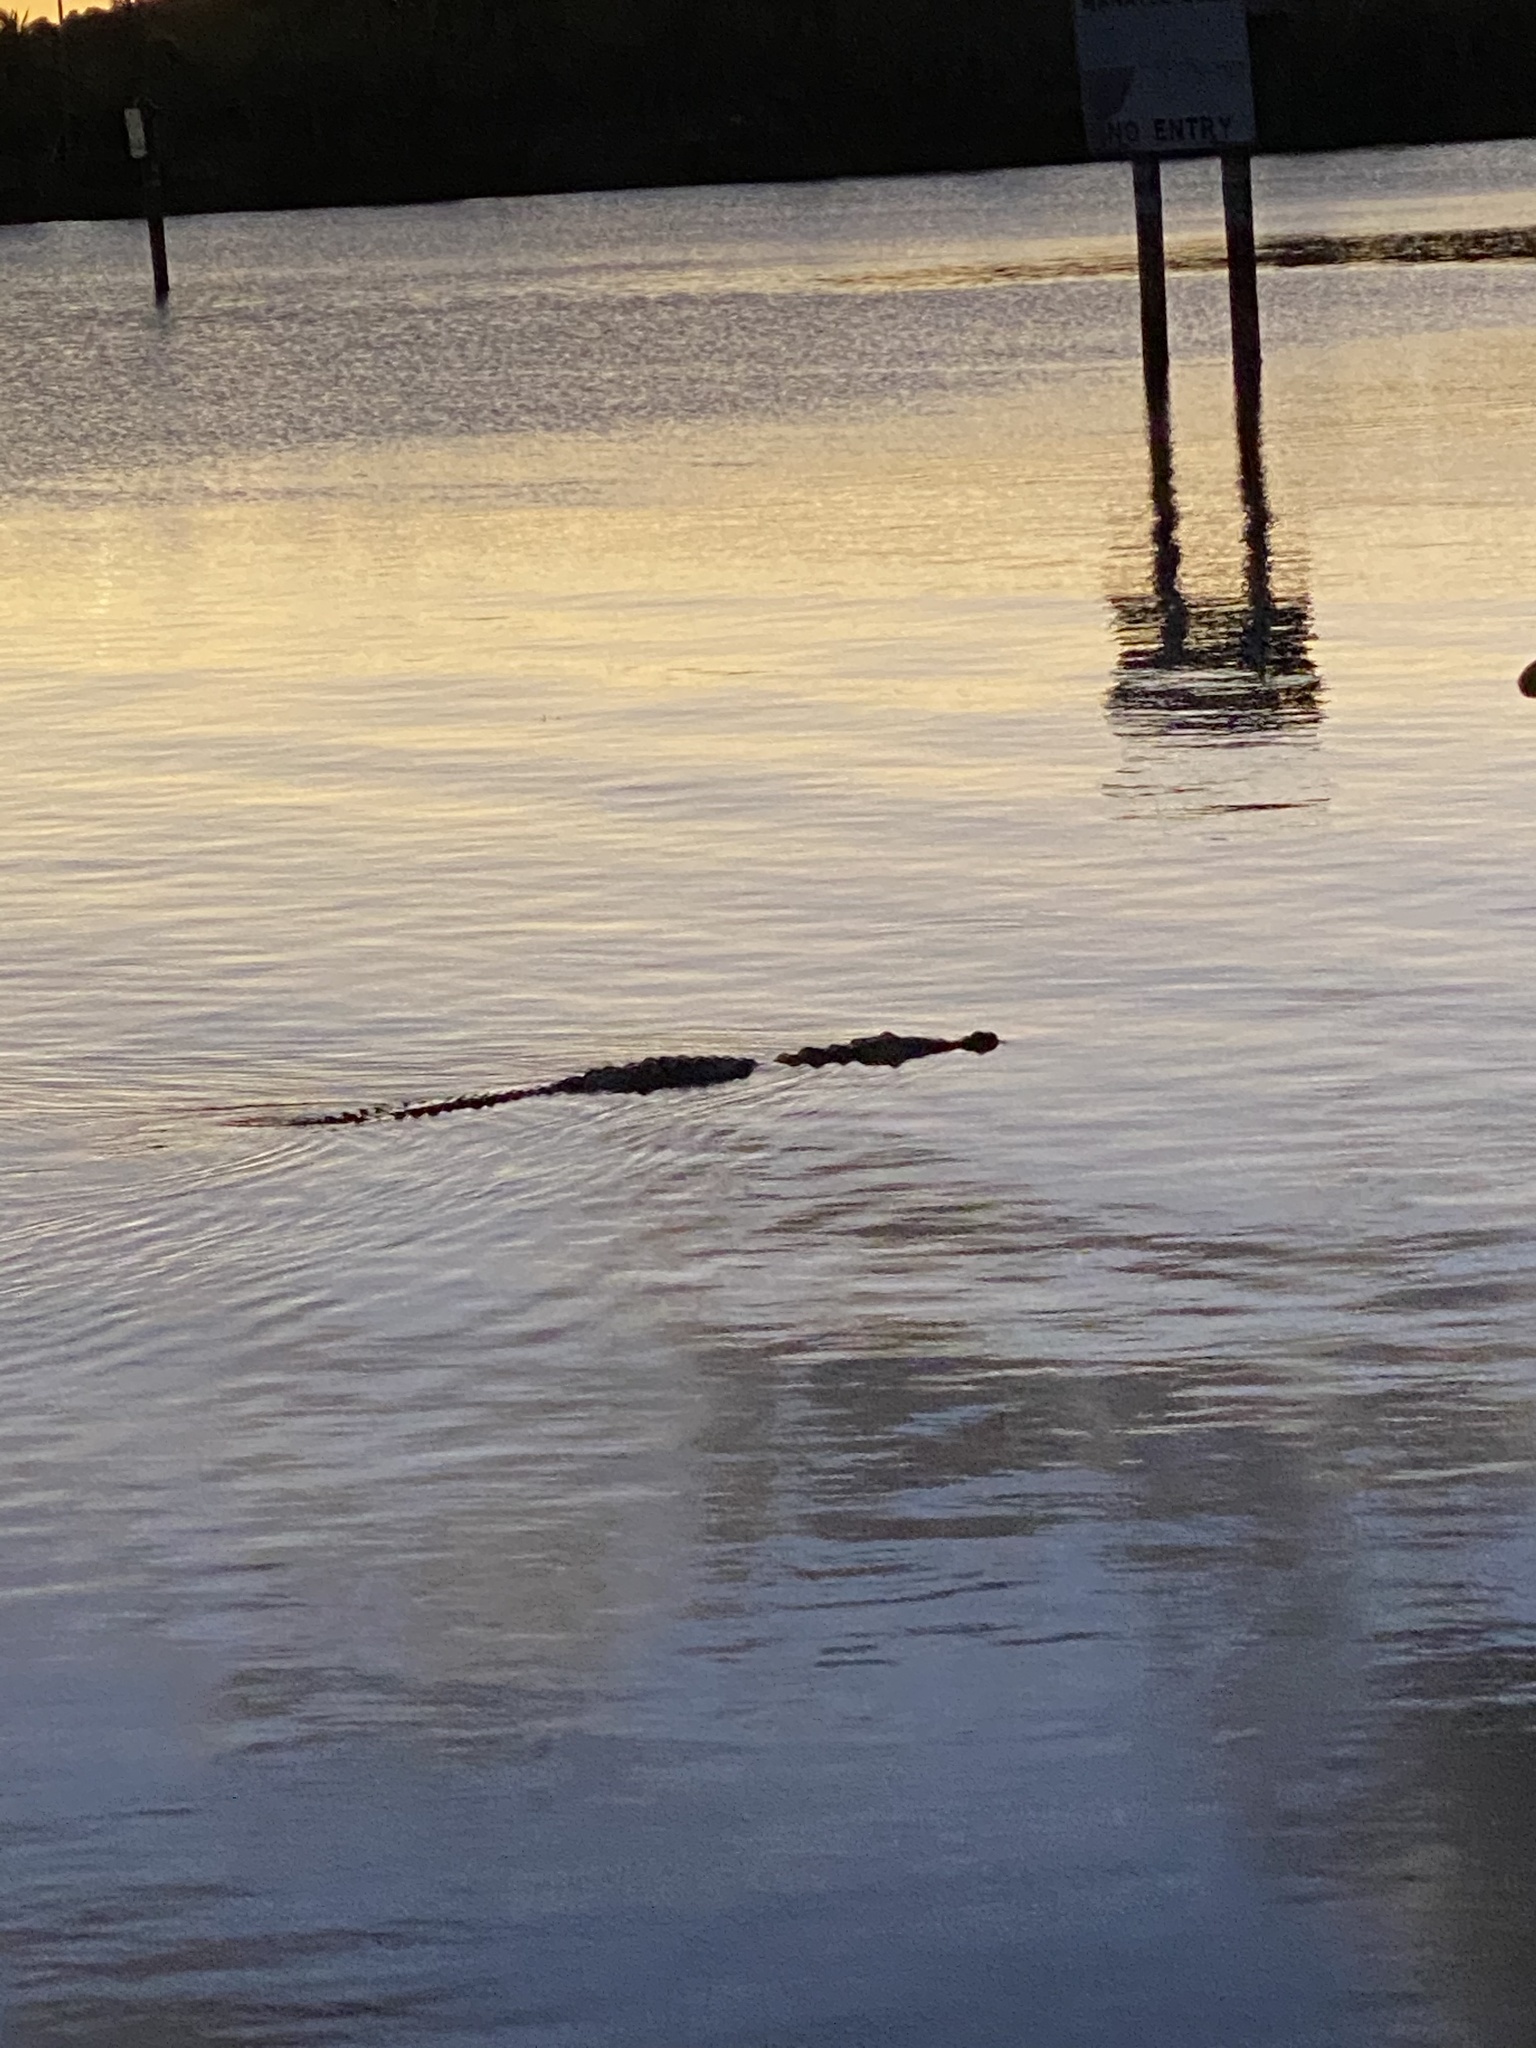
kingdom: Animalia
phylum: Chordata
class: Crocodylia
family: Crocodylidae
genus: Crocodylus
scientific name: Crocodylus acutus
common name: American crocodile
